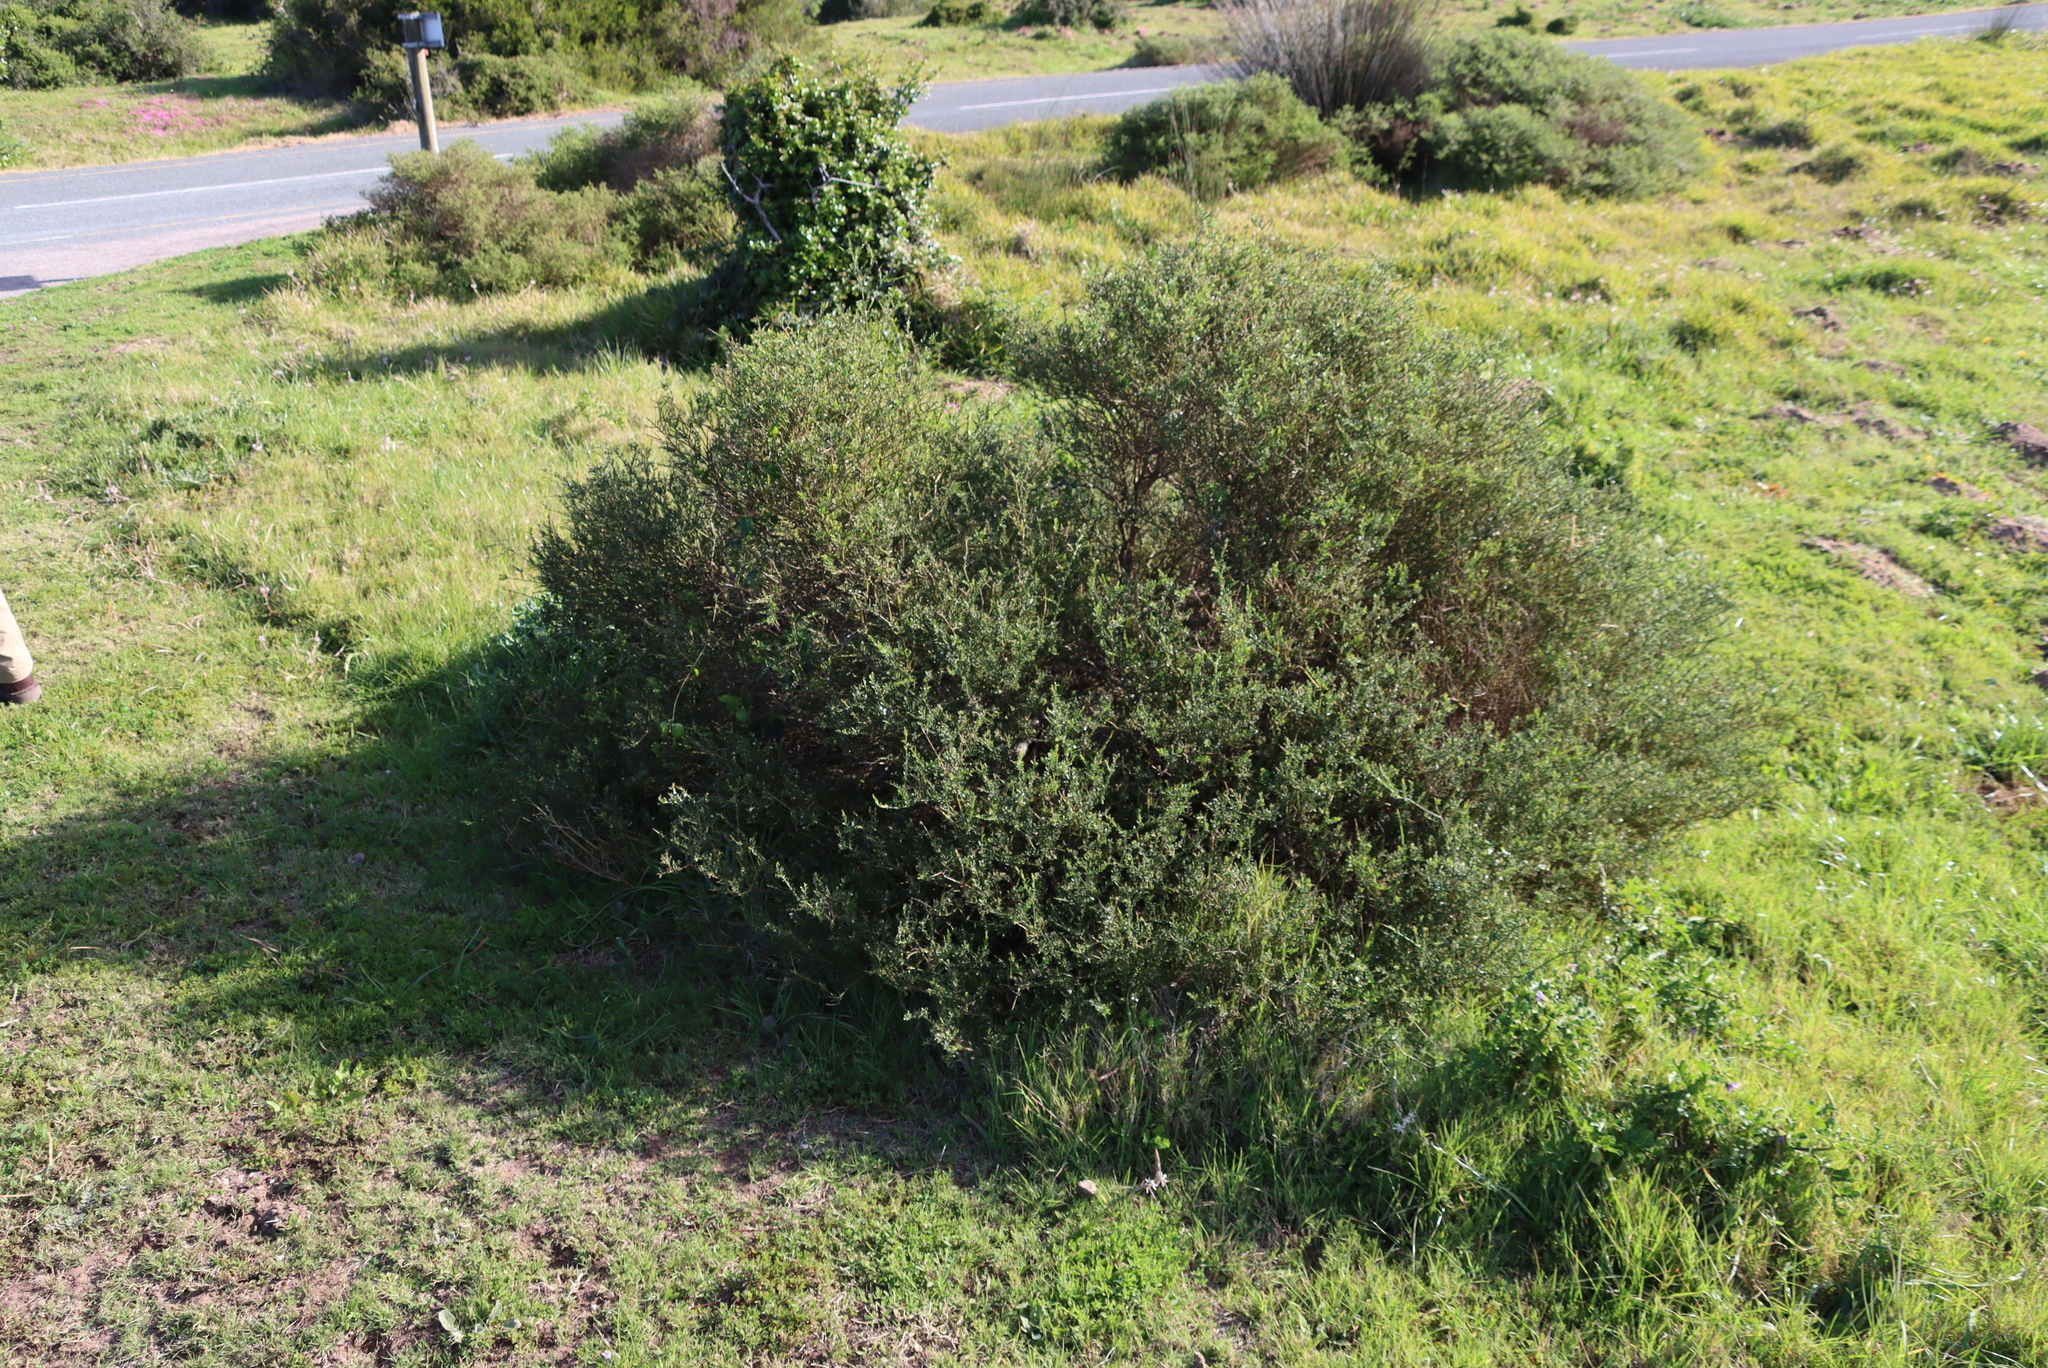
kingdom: Plantae
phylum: Tracheophyta
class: Magnoliopsida
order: Fabales
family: Polygalaceae
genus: Muraltia
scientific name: Muraltia spinosa
